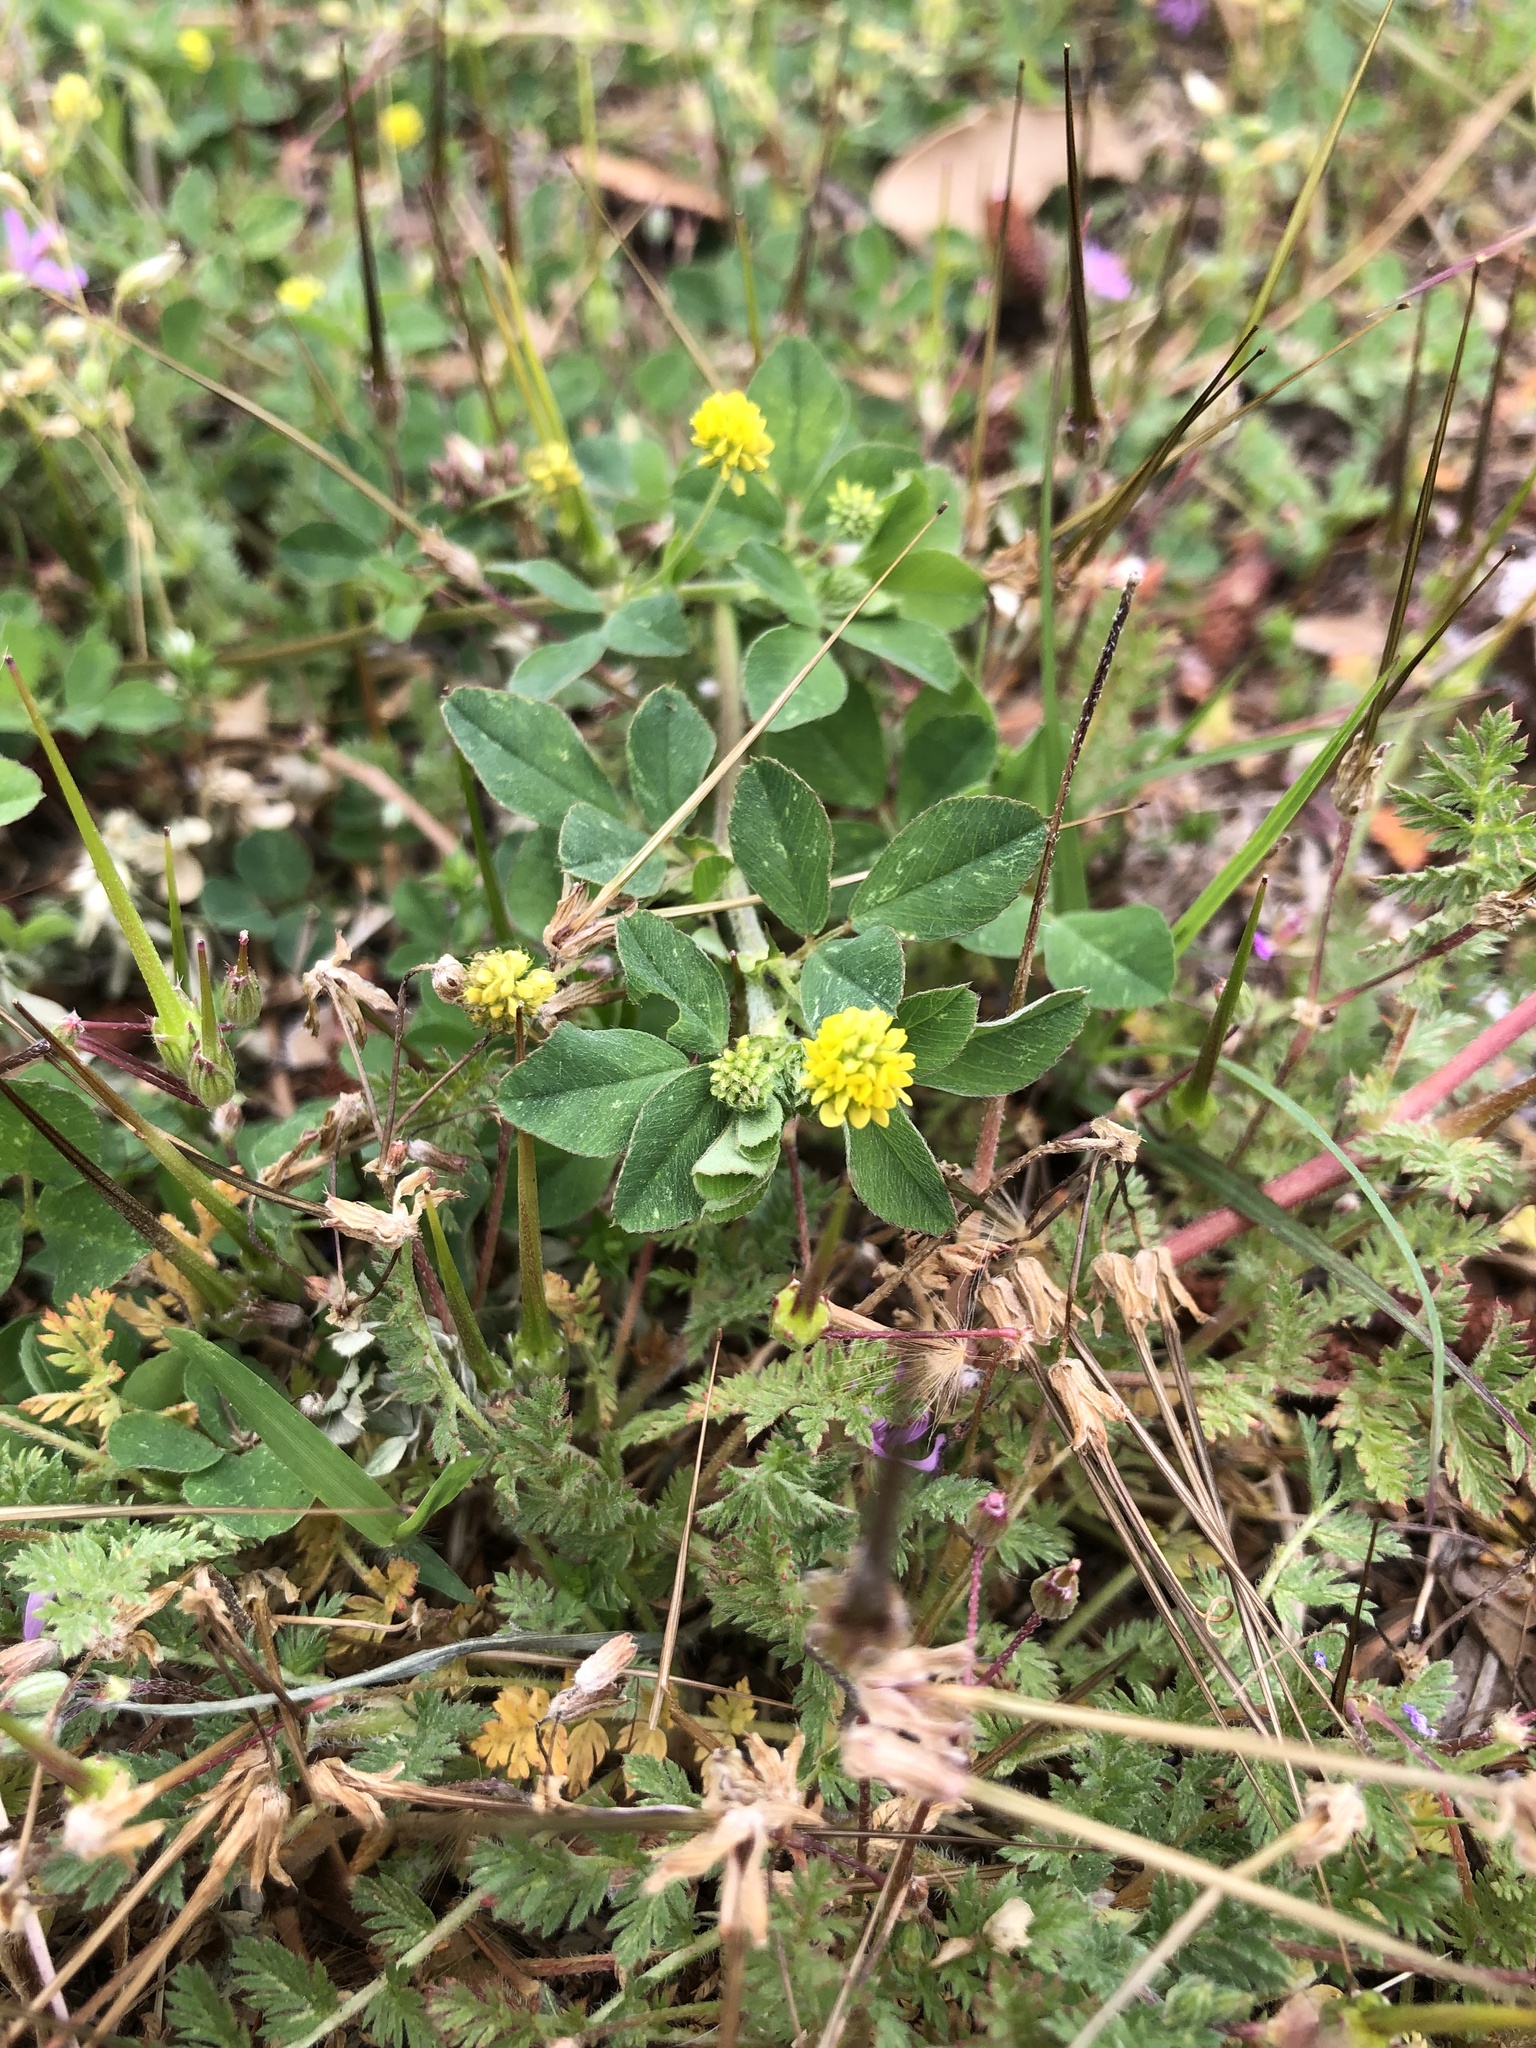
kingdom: Plantae
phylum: Tracheophyta
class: Magnoliopsida
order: Fabales
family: Fabaceae
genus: Medicago
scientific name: Medicago lupulina
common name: Black medick
